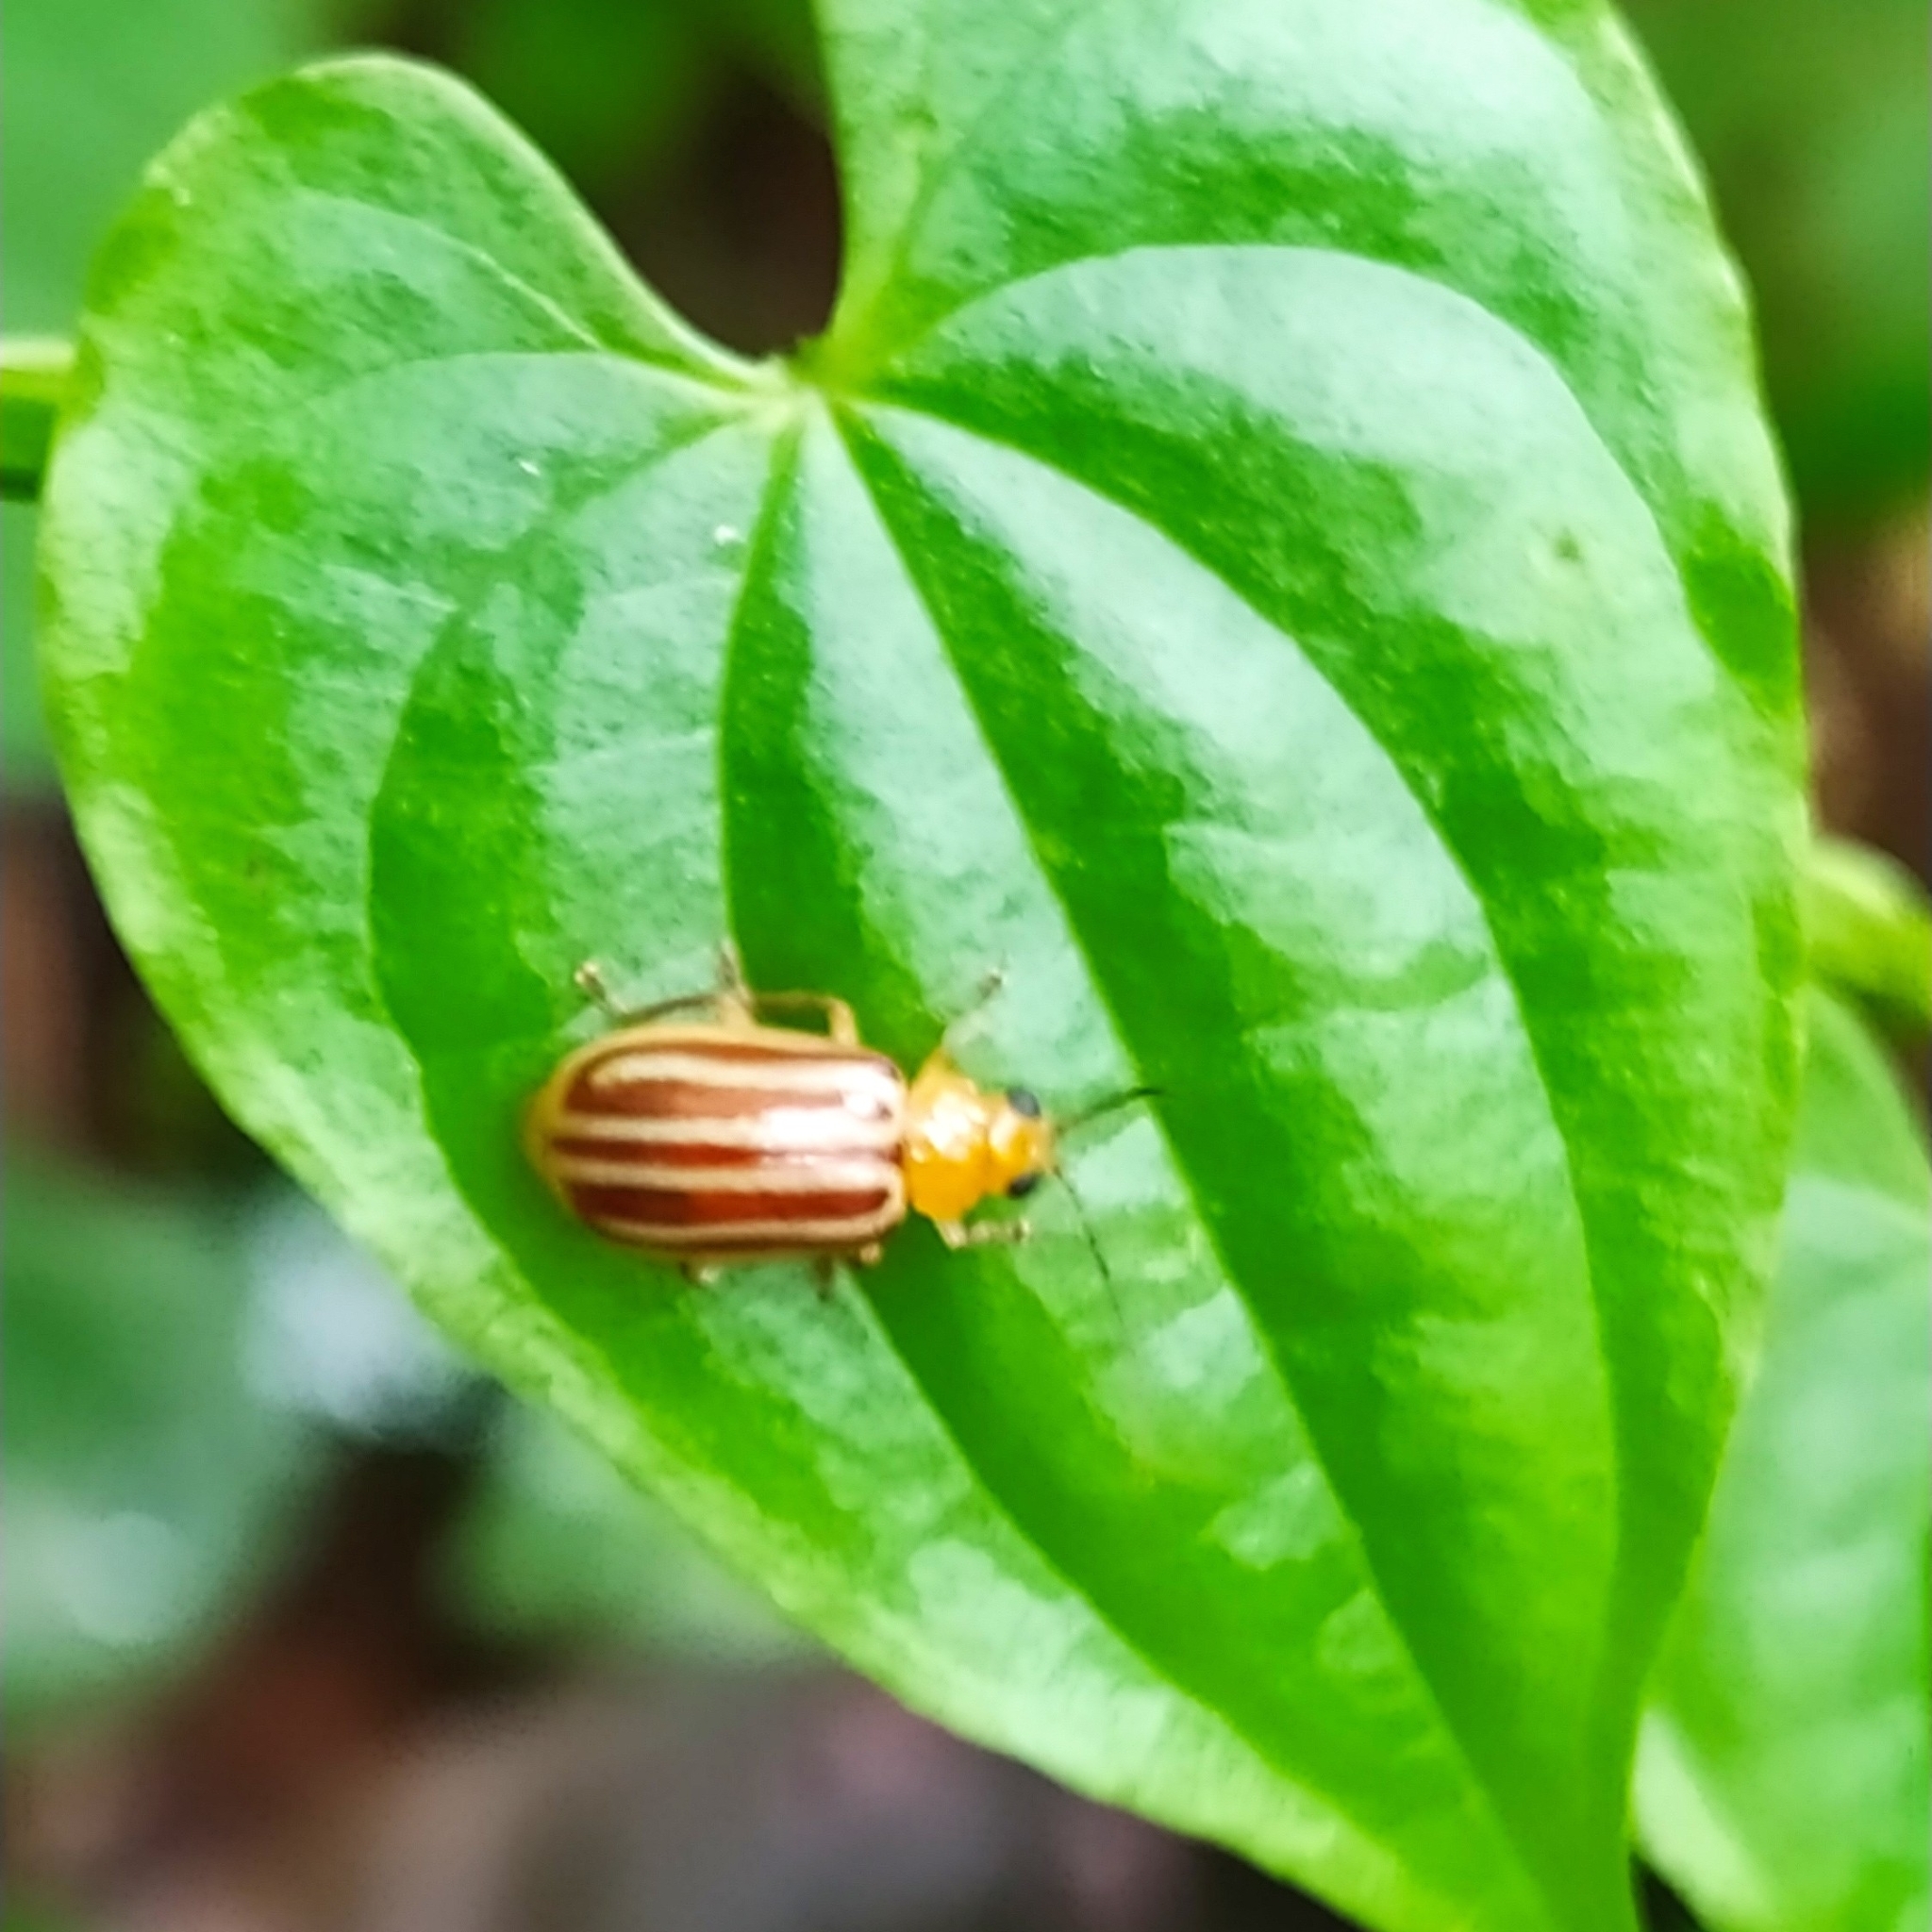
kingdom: Animalia
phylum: Arthropoda
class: Insecta
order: Coleoptera
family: Chrysomelidae
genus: Exora
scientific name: Exora
